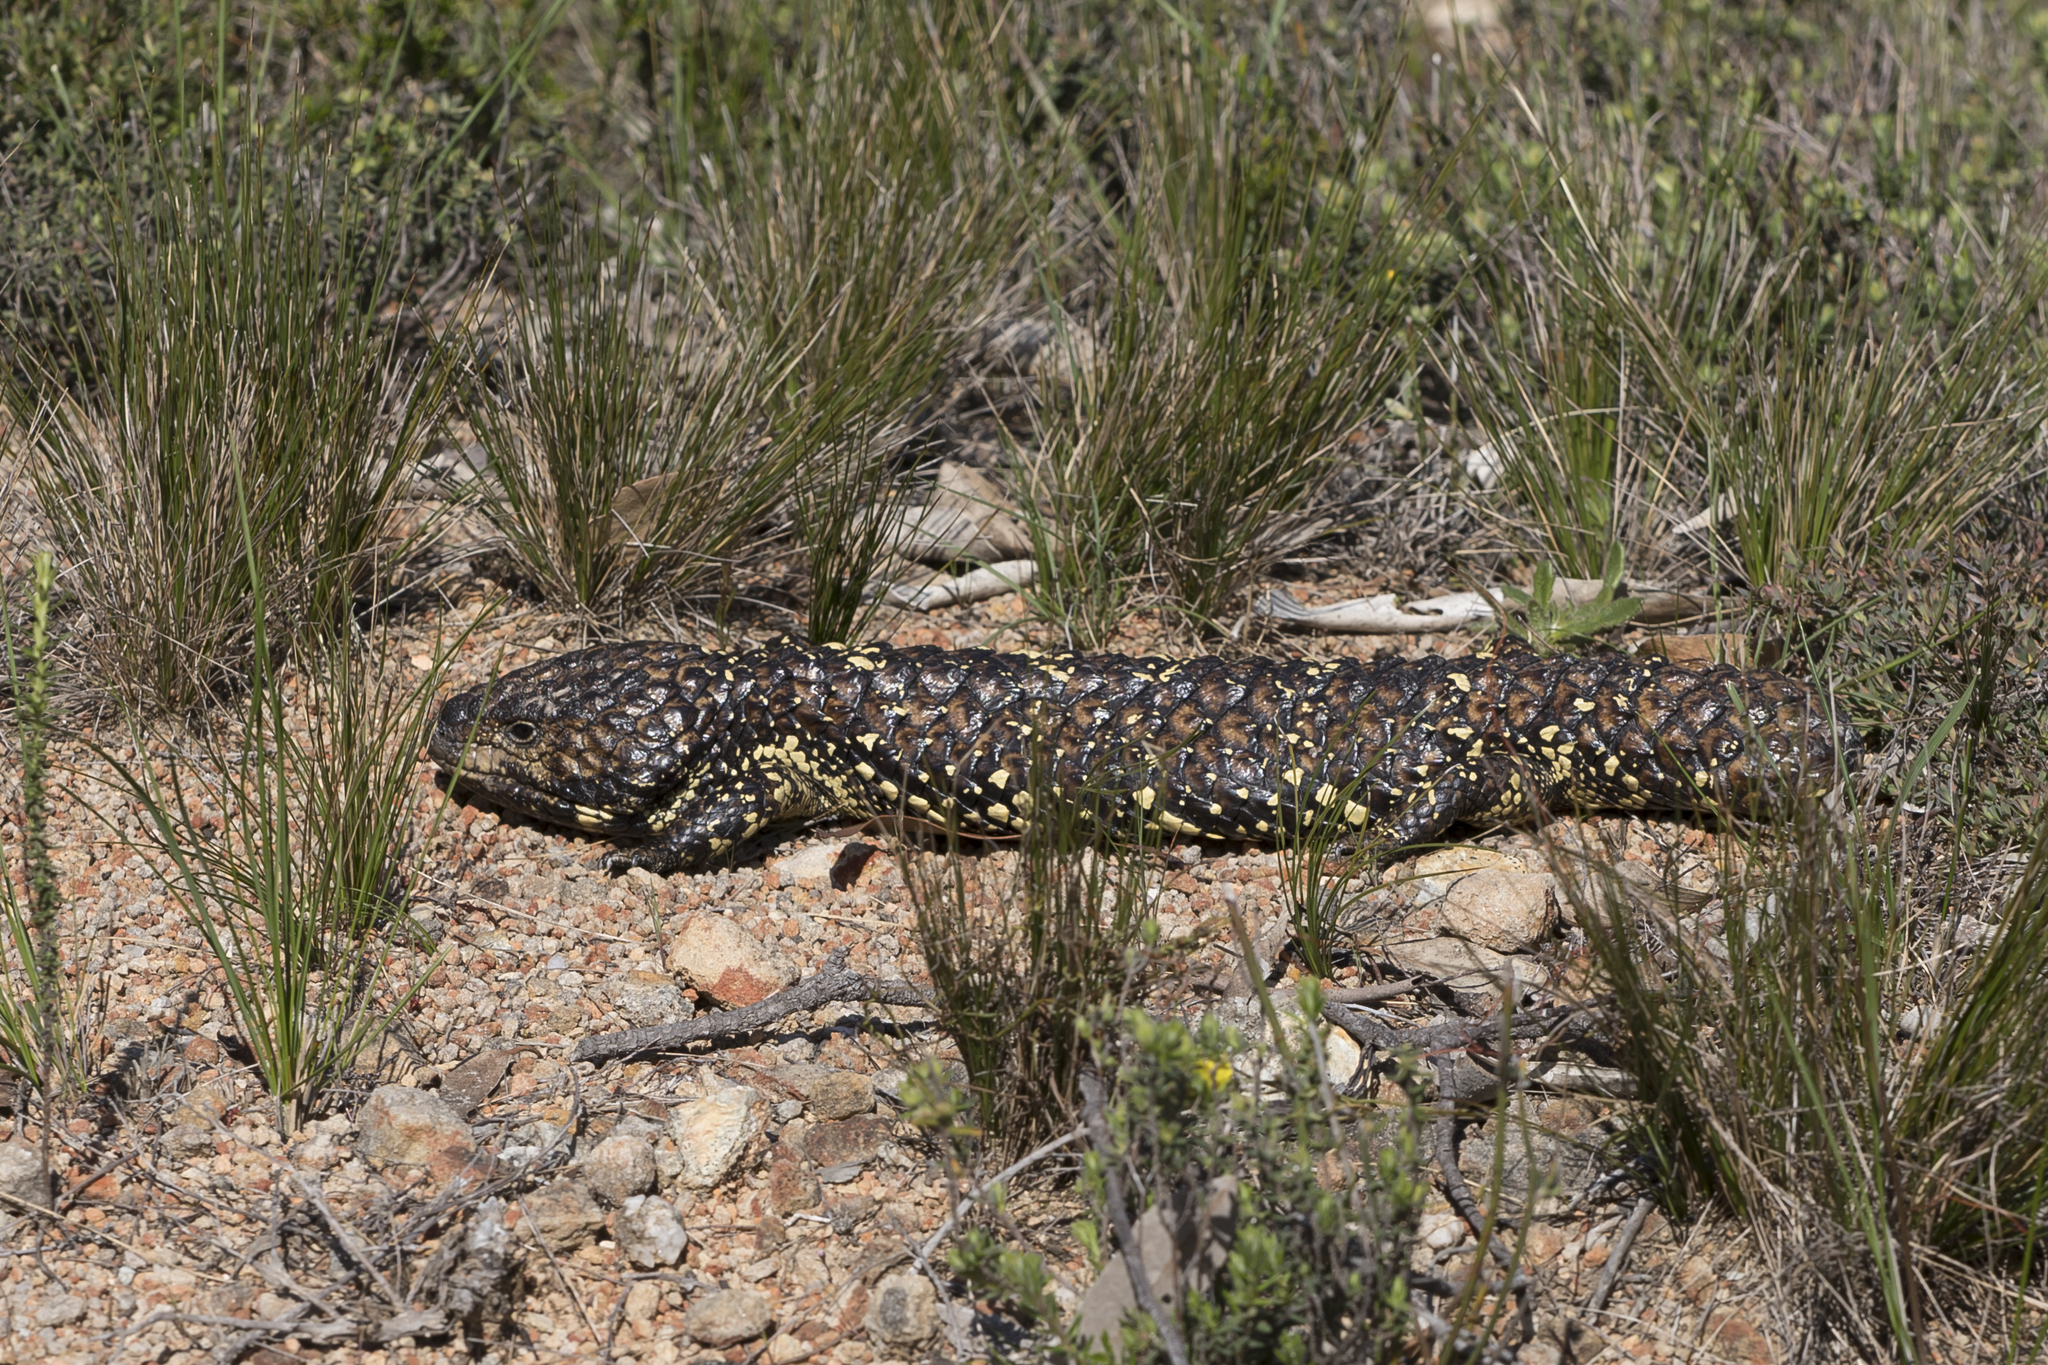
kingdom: Animalia
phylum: Chordata
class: Squamata
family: Scincidae
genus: Tiliqua
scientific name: Tiliqua rugosa
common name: Pinecone lizard
